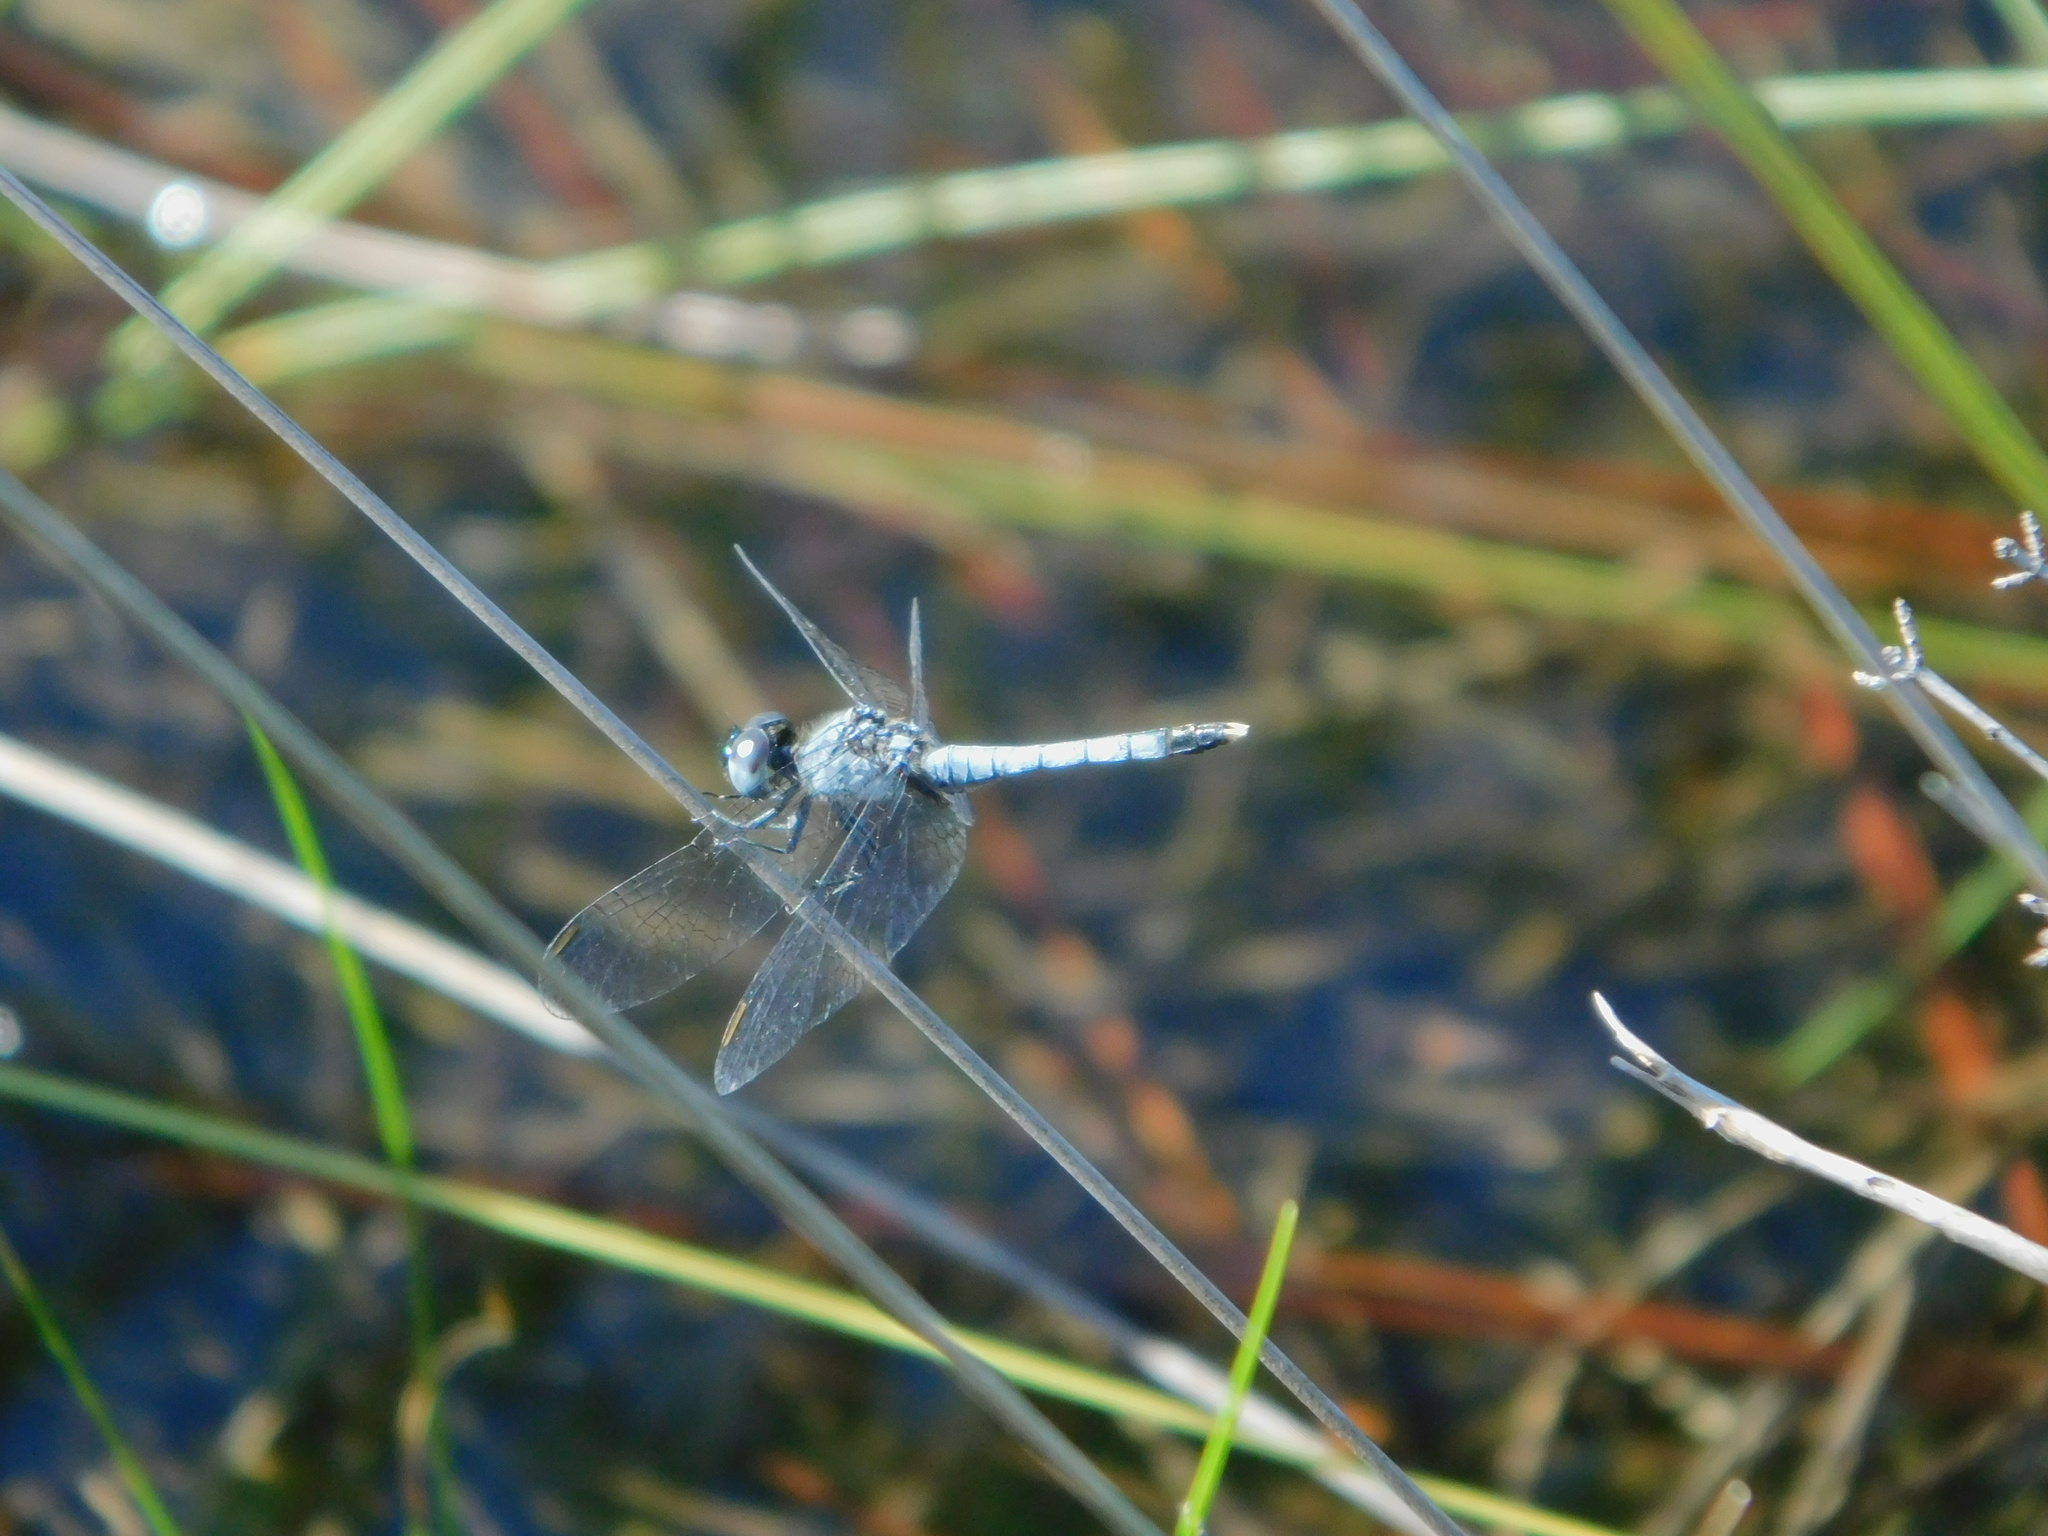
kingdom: Animalia
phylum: Arthropoda
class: Insecta
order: Odonata
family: Libellulidae
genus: Erythrodiplax
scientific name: Erythrodiplax minuscula
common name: Little blue dragonlet
